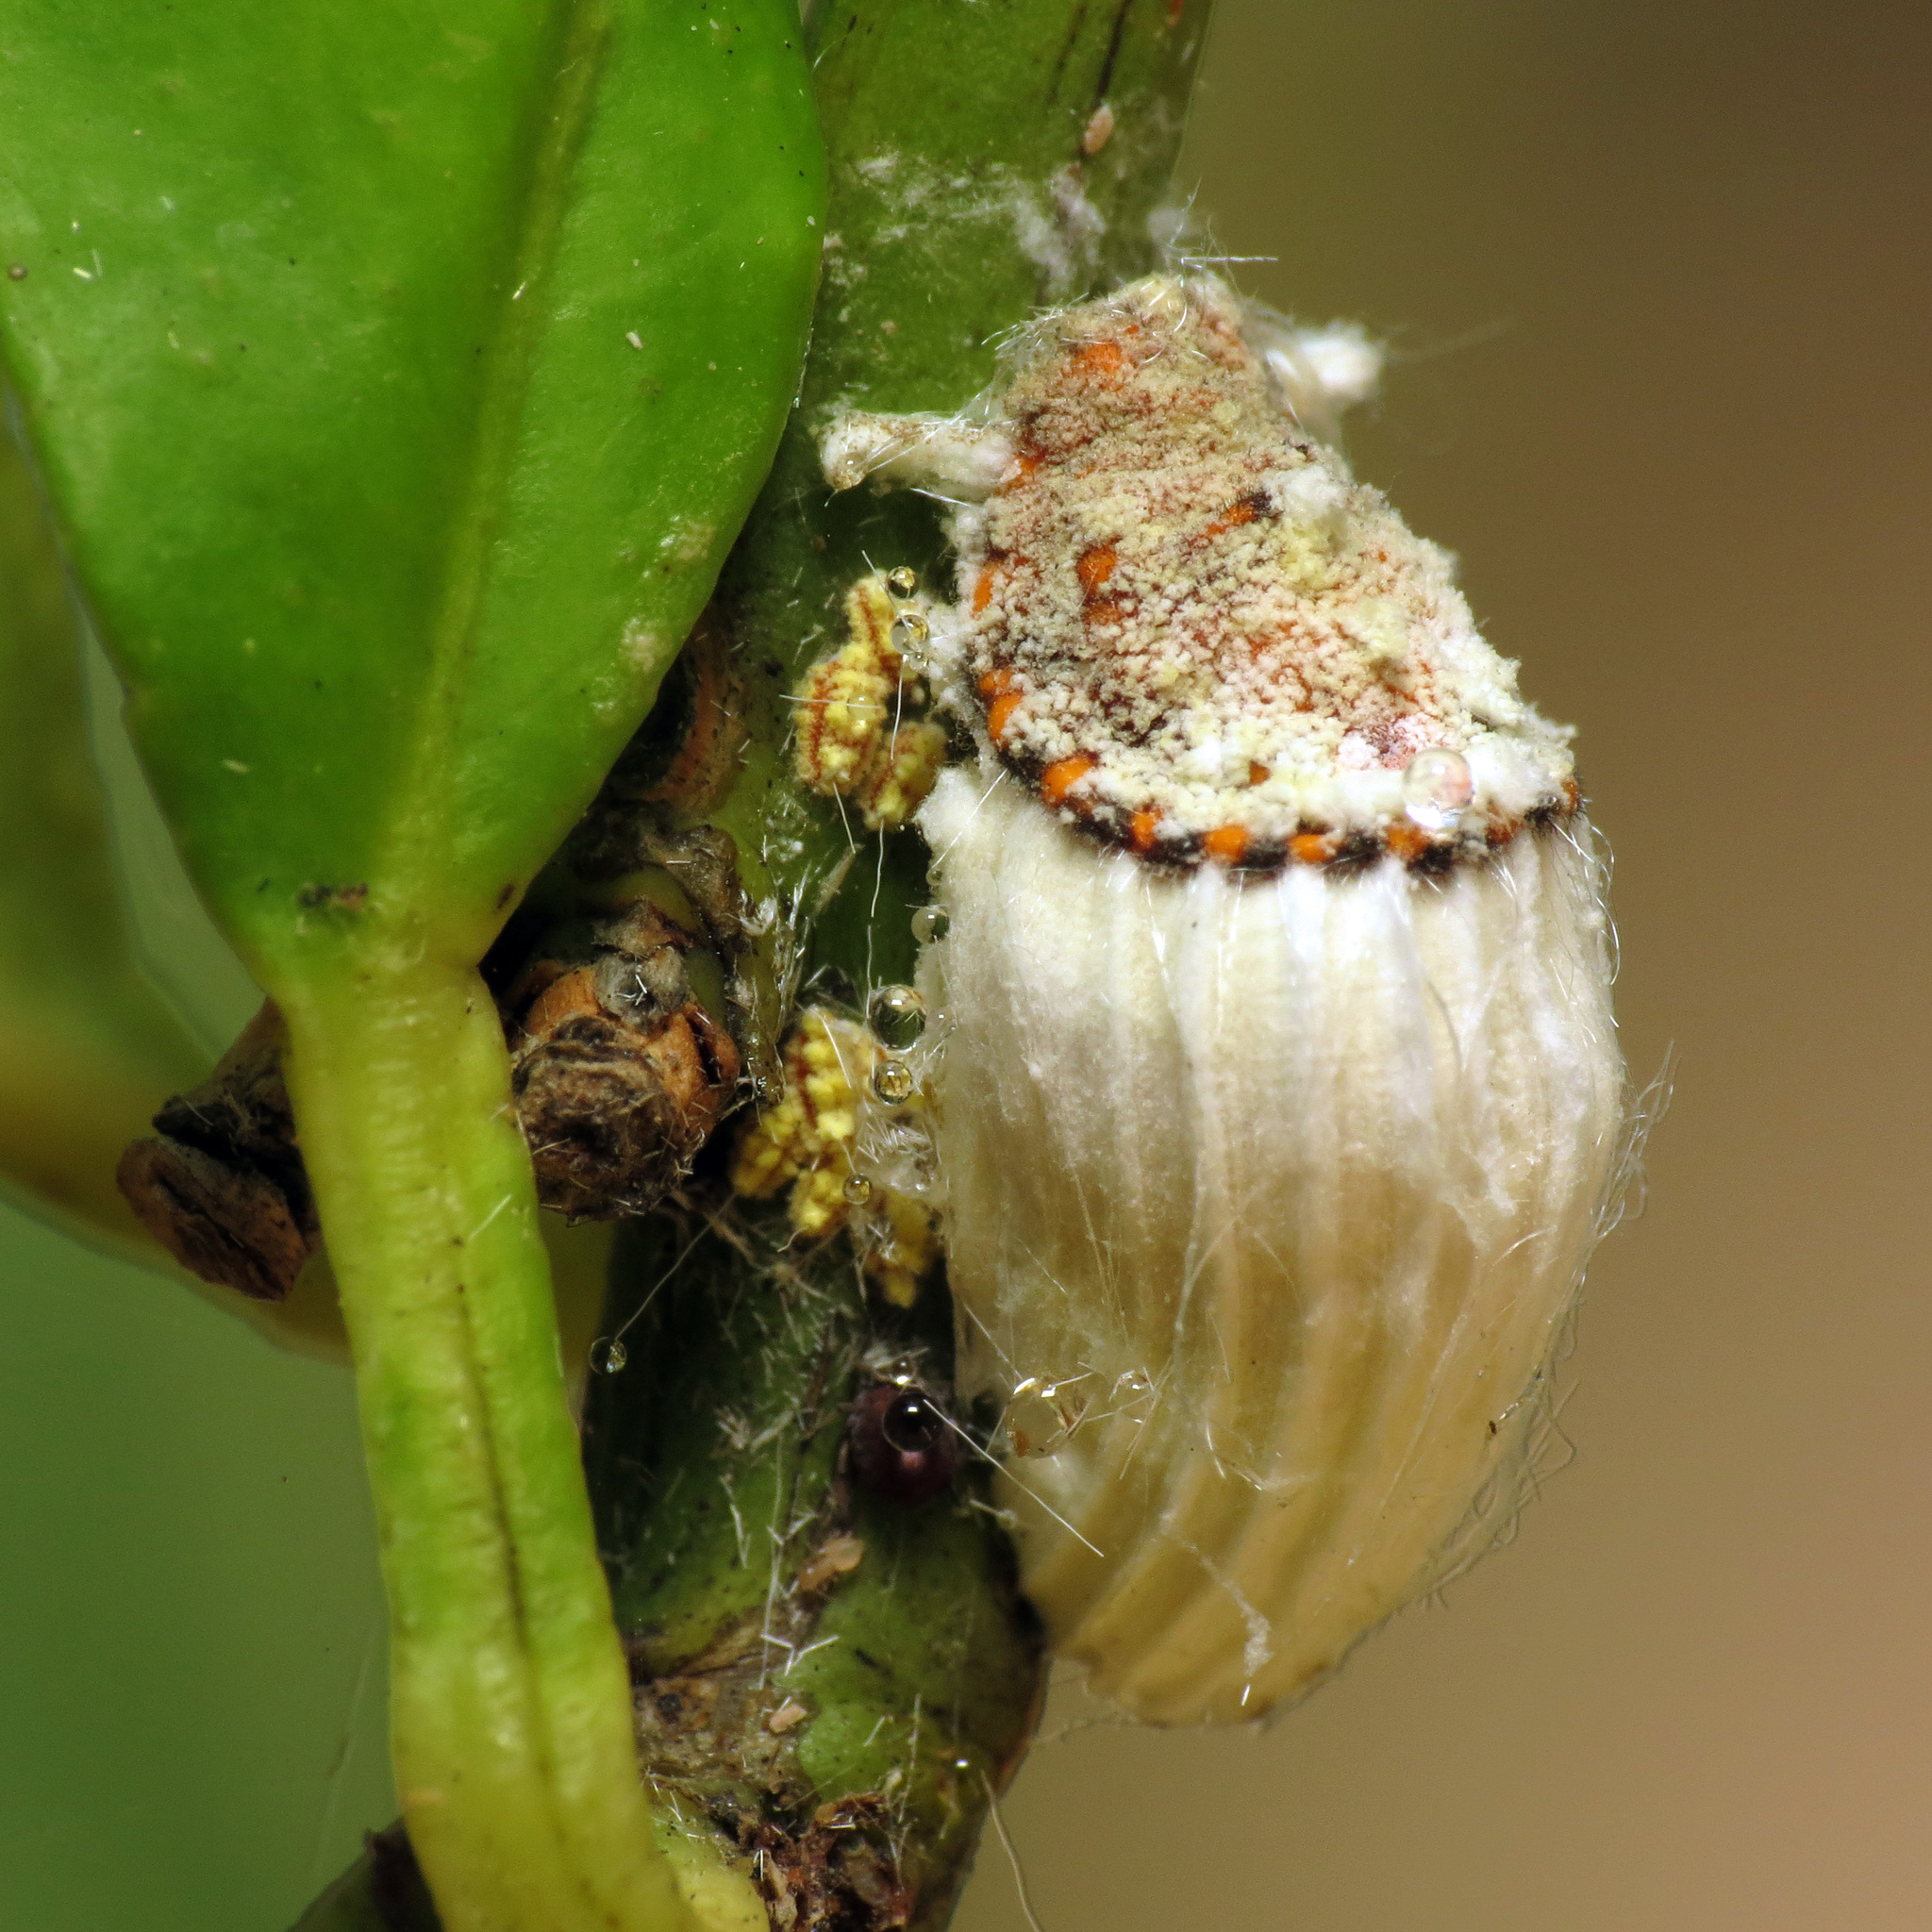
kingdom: Animalia
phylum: Arthropoda
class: Insecta
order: Hemiptera
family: Margarodidae
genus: Icerya
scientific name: Icerya purchasi
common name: Cottony cushion scale
